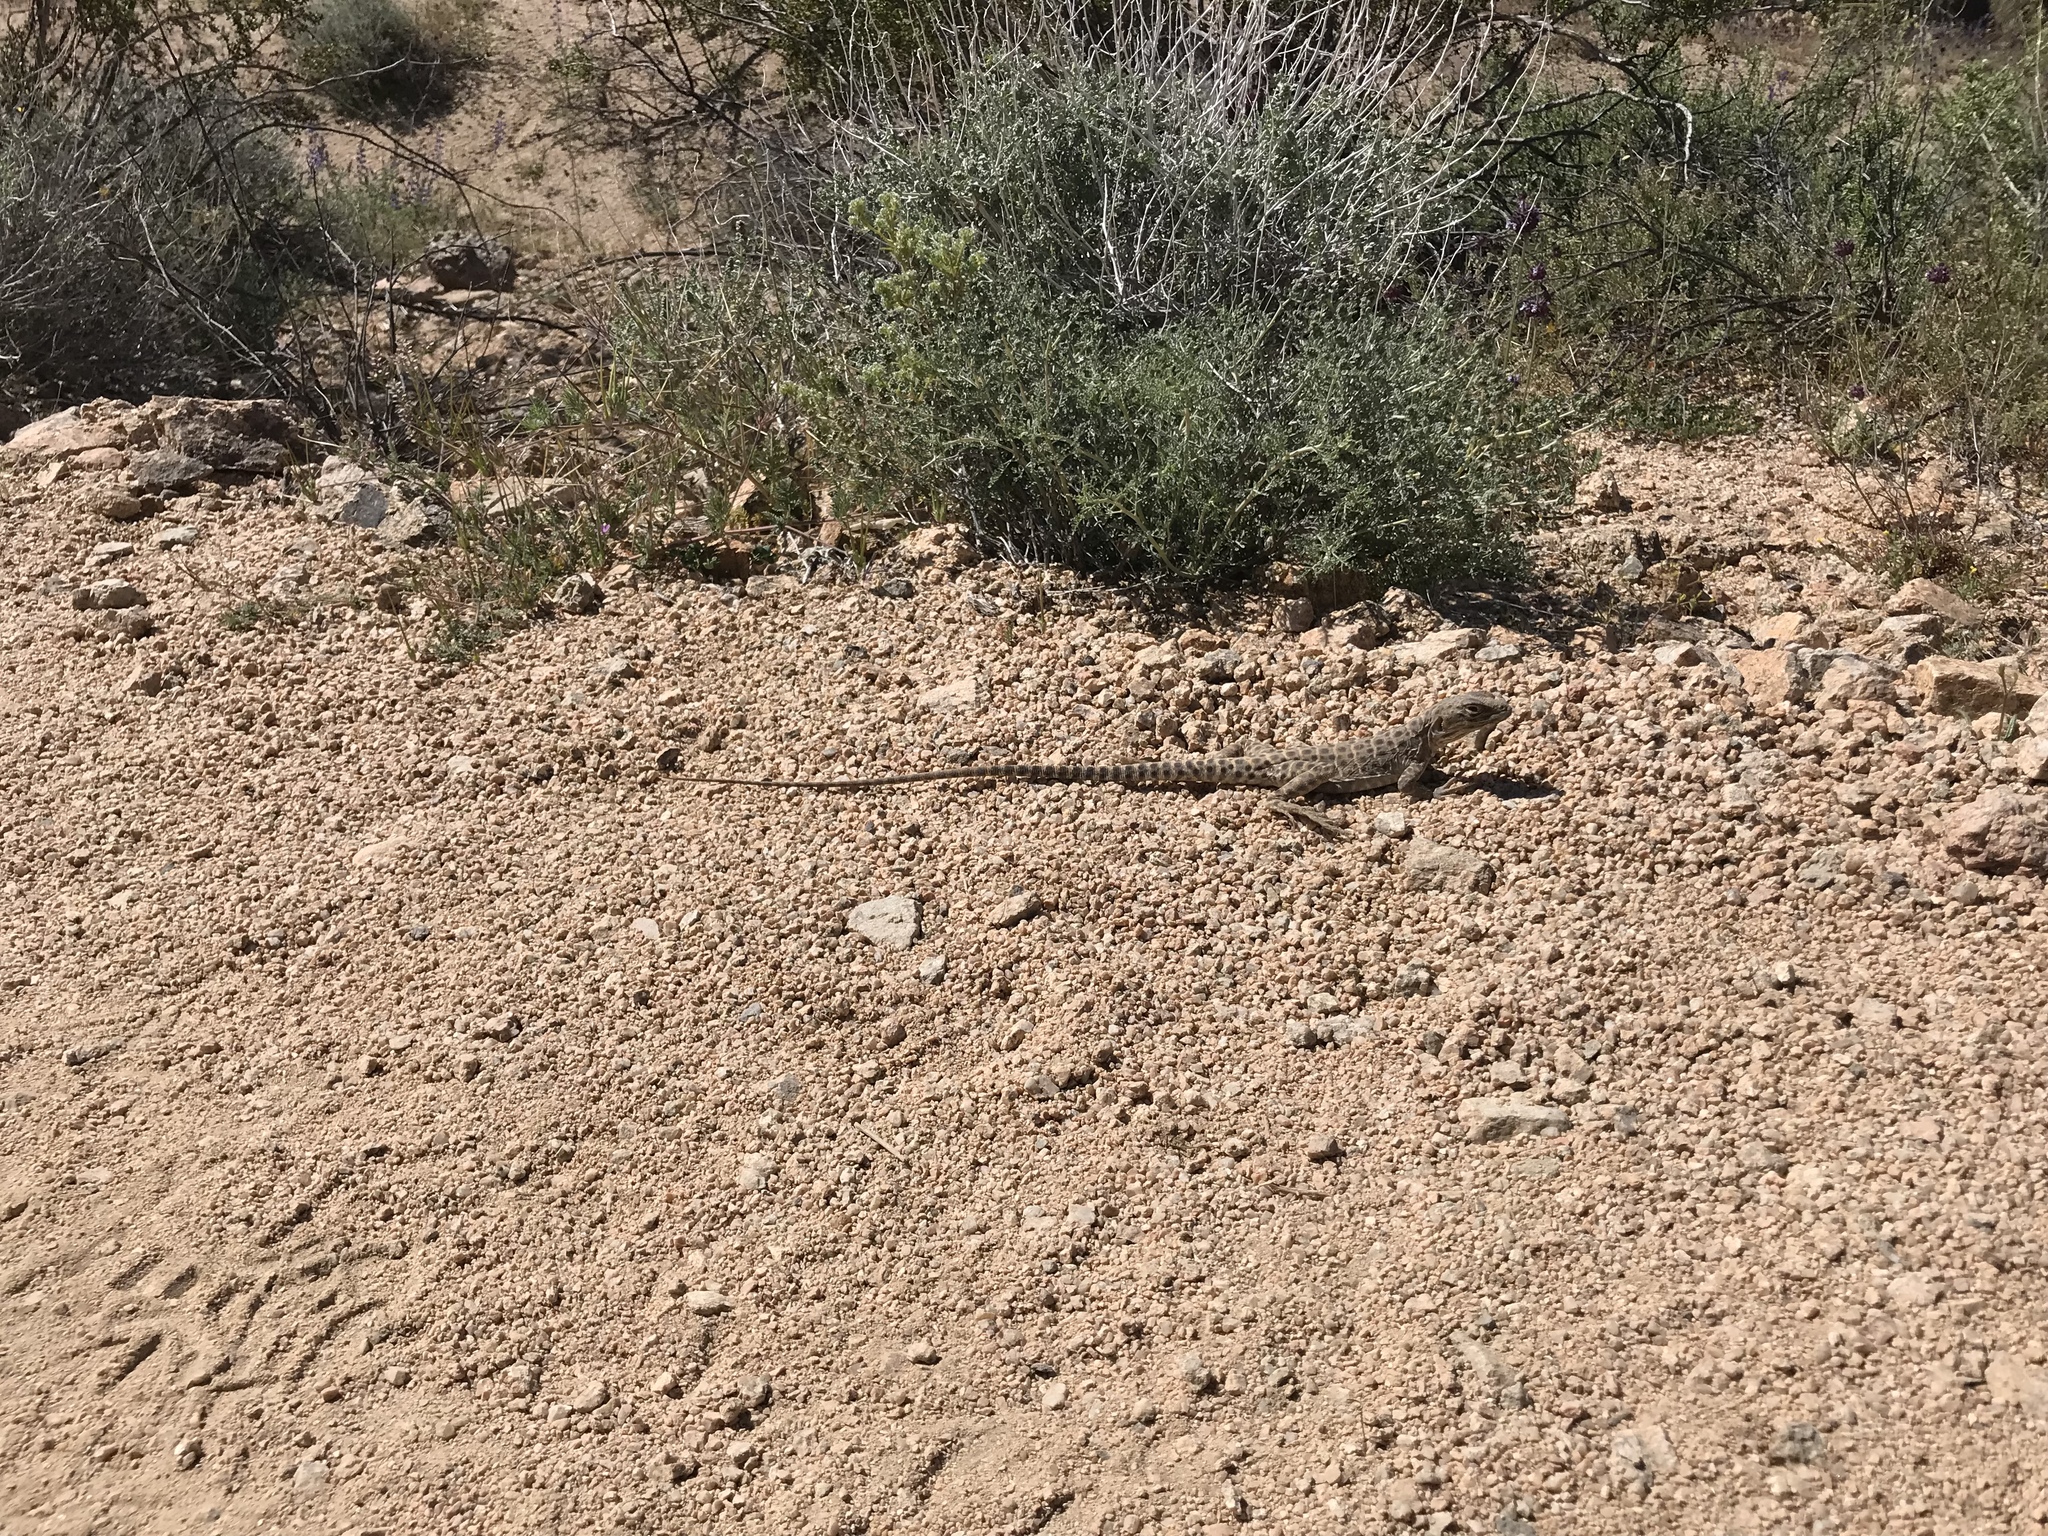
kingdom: Animalia
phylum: Chordata
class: Squamata
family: Teiidae
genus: Aspidoscelis
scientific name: Aspidoscelis tigris
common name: Tiger whiptail
